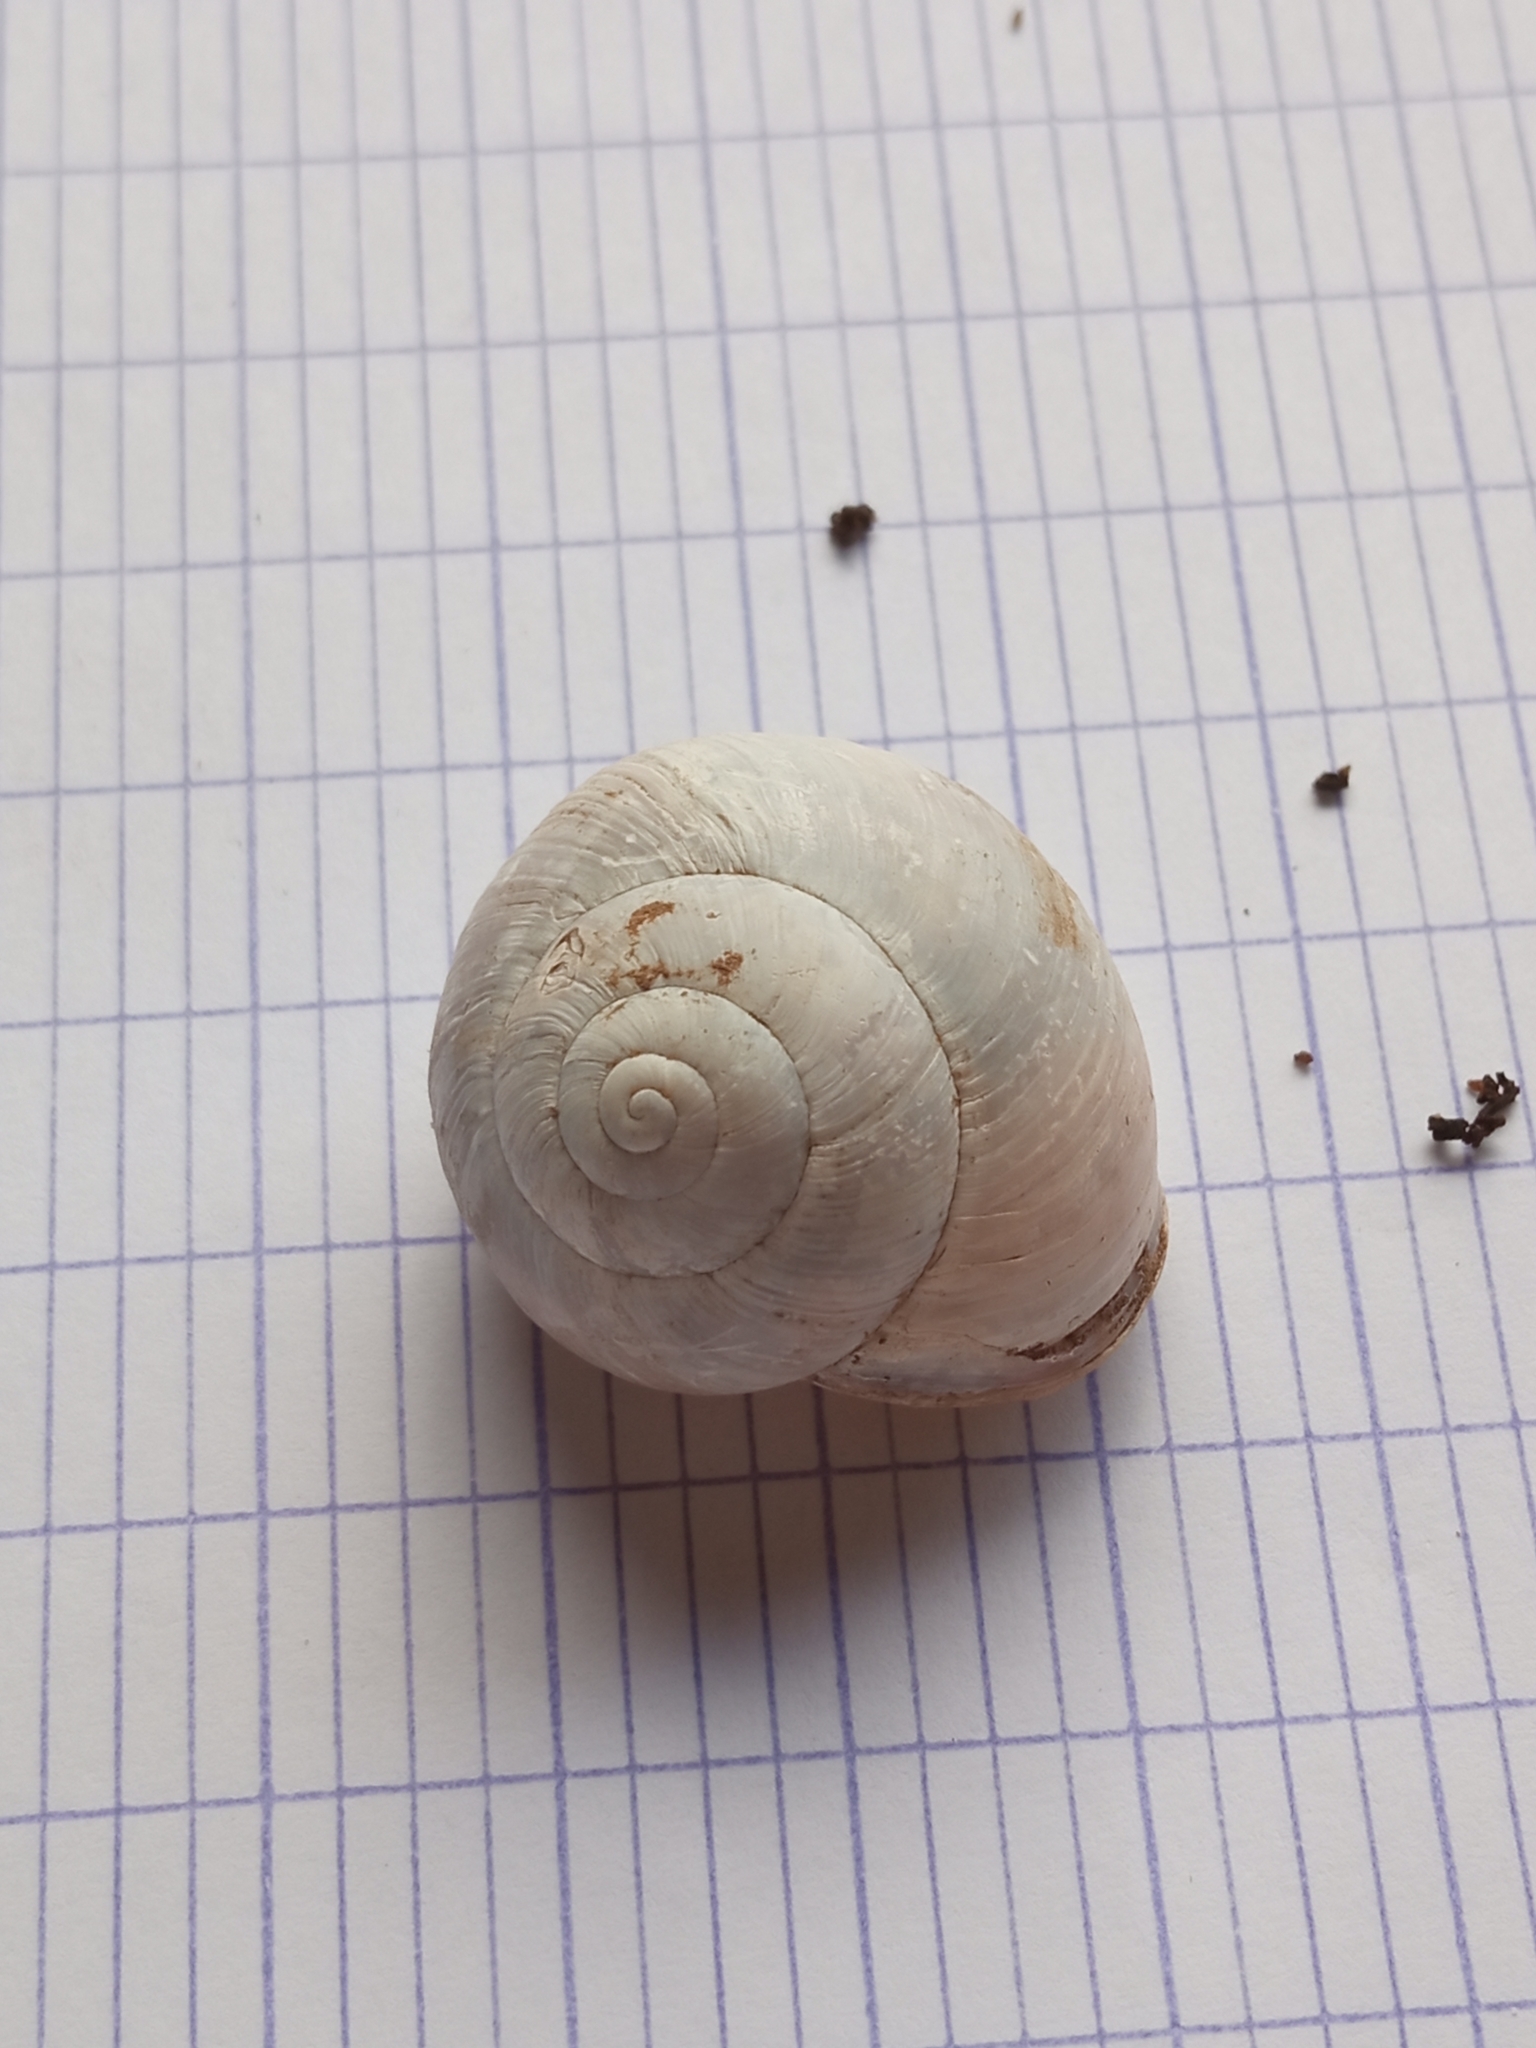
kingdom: Animalia
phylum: Mollusca
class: Gastropoda
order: Stylommatophora
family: Helicidae
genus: Cepaea
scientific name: Cepaea nemoralis
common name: Grovesnail
